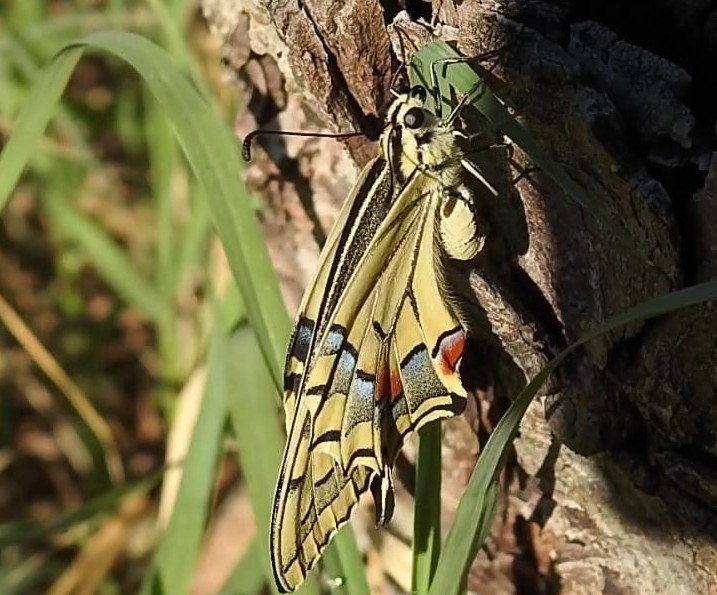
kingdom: Animalia
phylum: Arthropoda
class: Insecta
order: Lepidoptera
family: Papilionidae
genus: Papilio
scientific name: Papilio machaon
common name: Swallowtail
